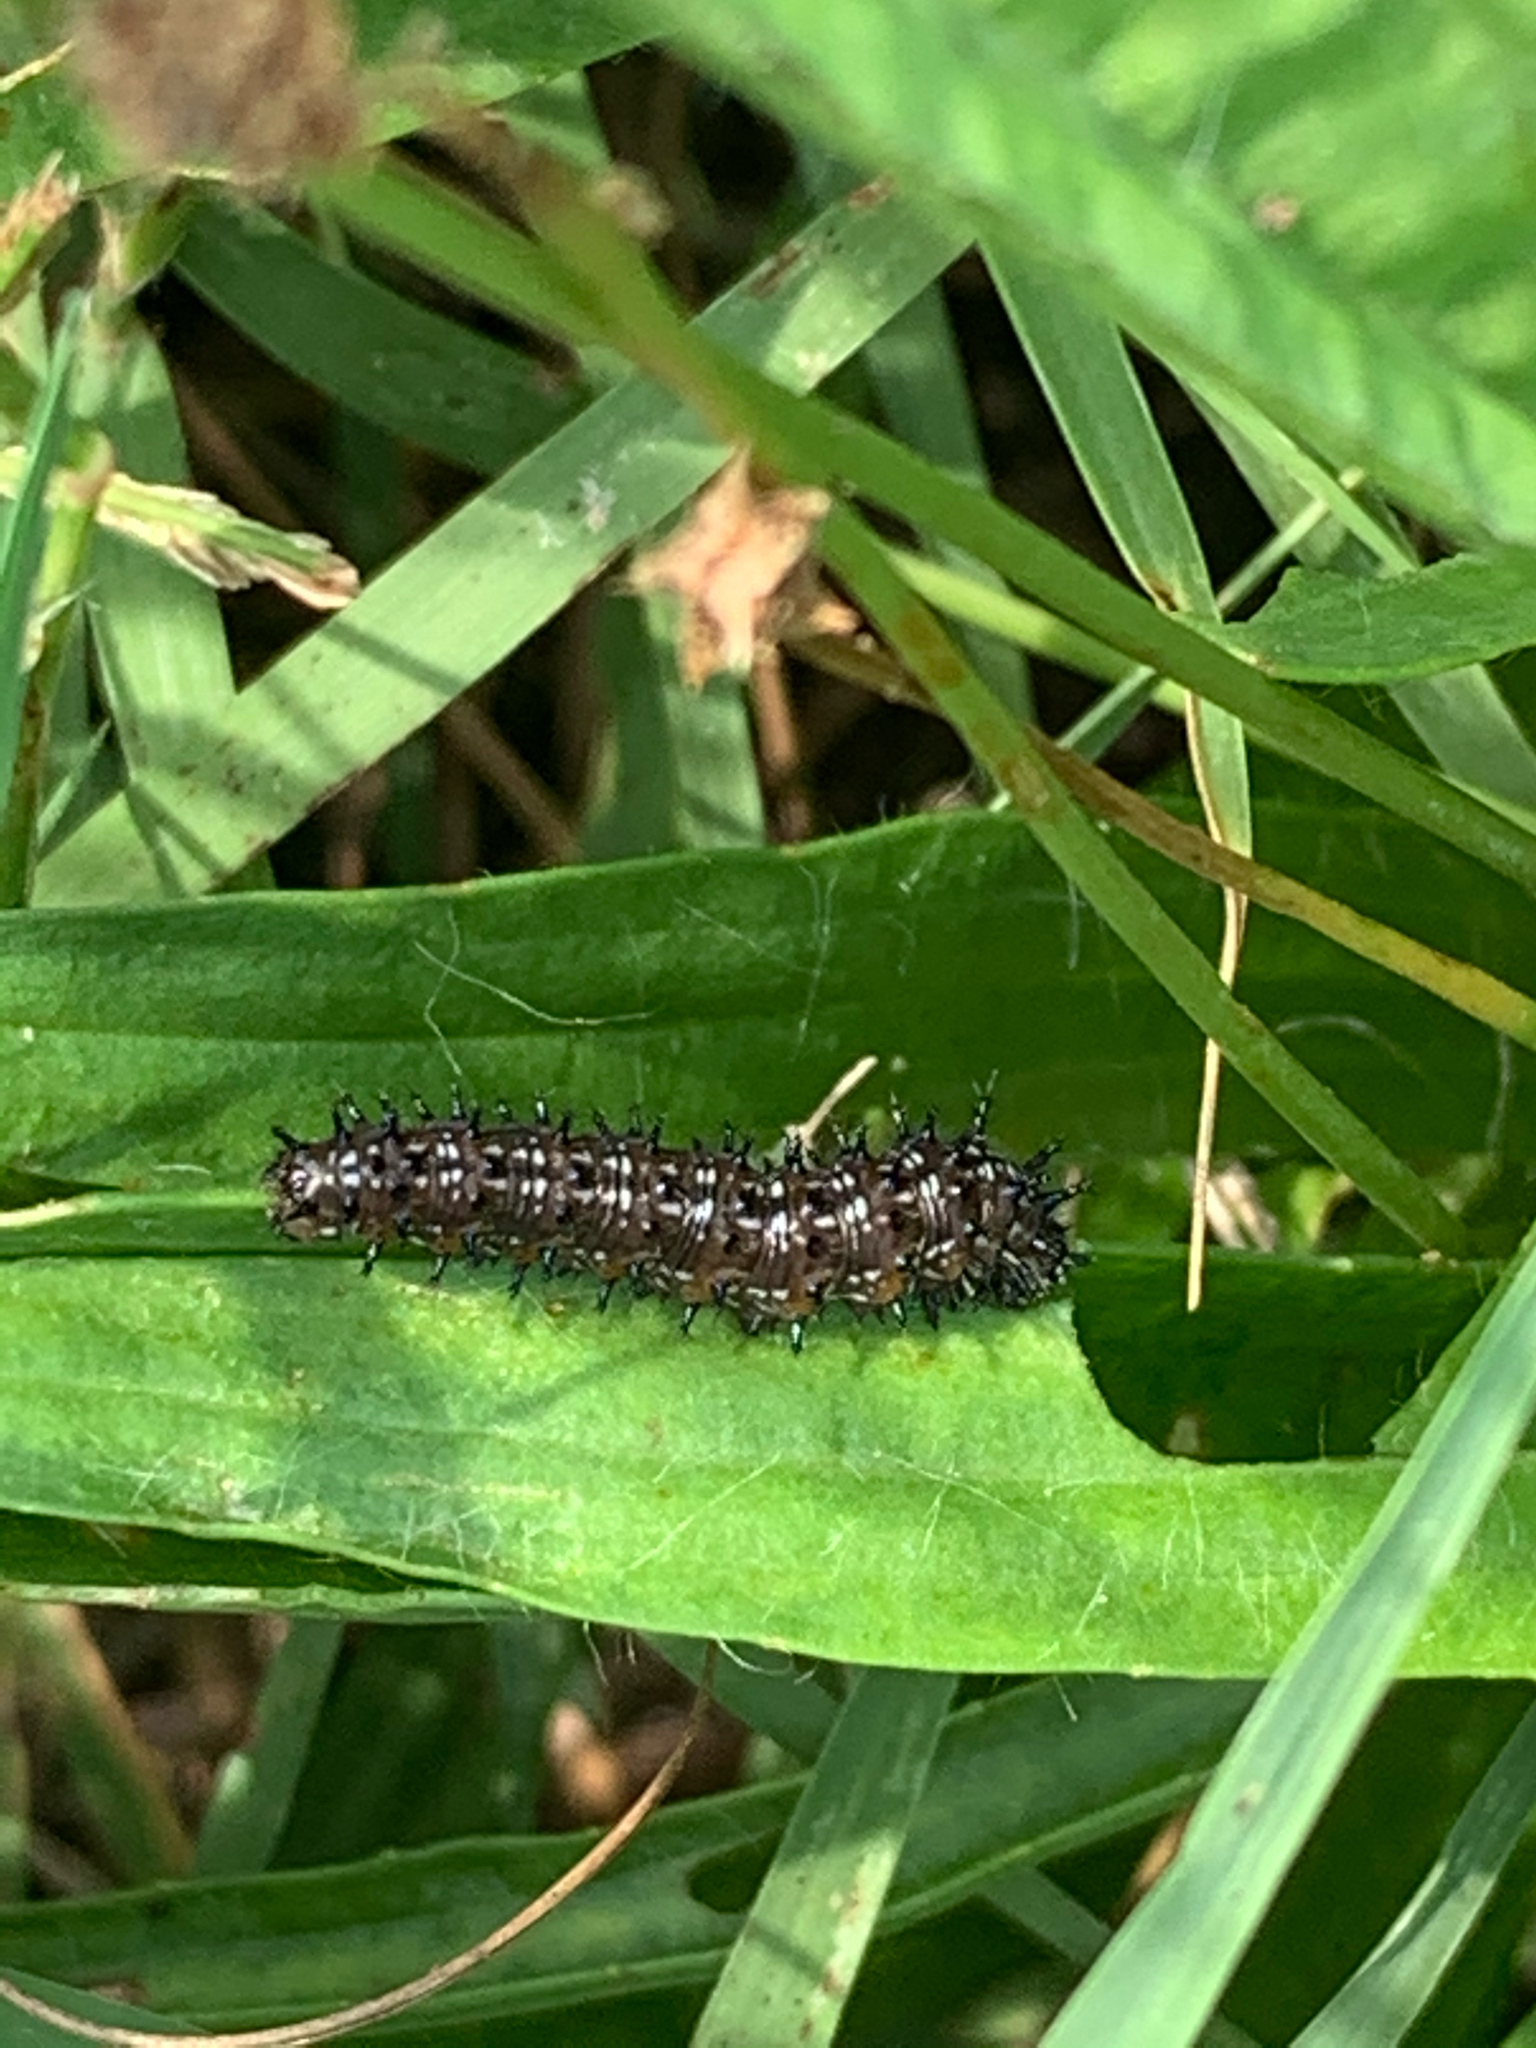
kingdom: Animalia
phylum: Arthropoda
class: Insecta
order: Lepidoptera
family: Nymphalidae
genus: Junonia
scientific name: Junonia coenia
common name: Common buckeye
